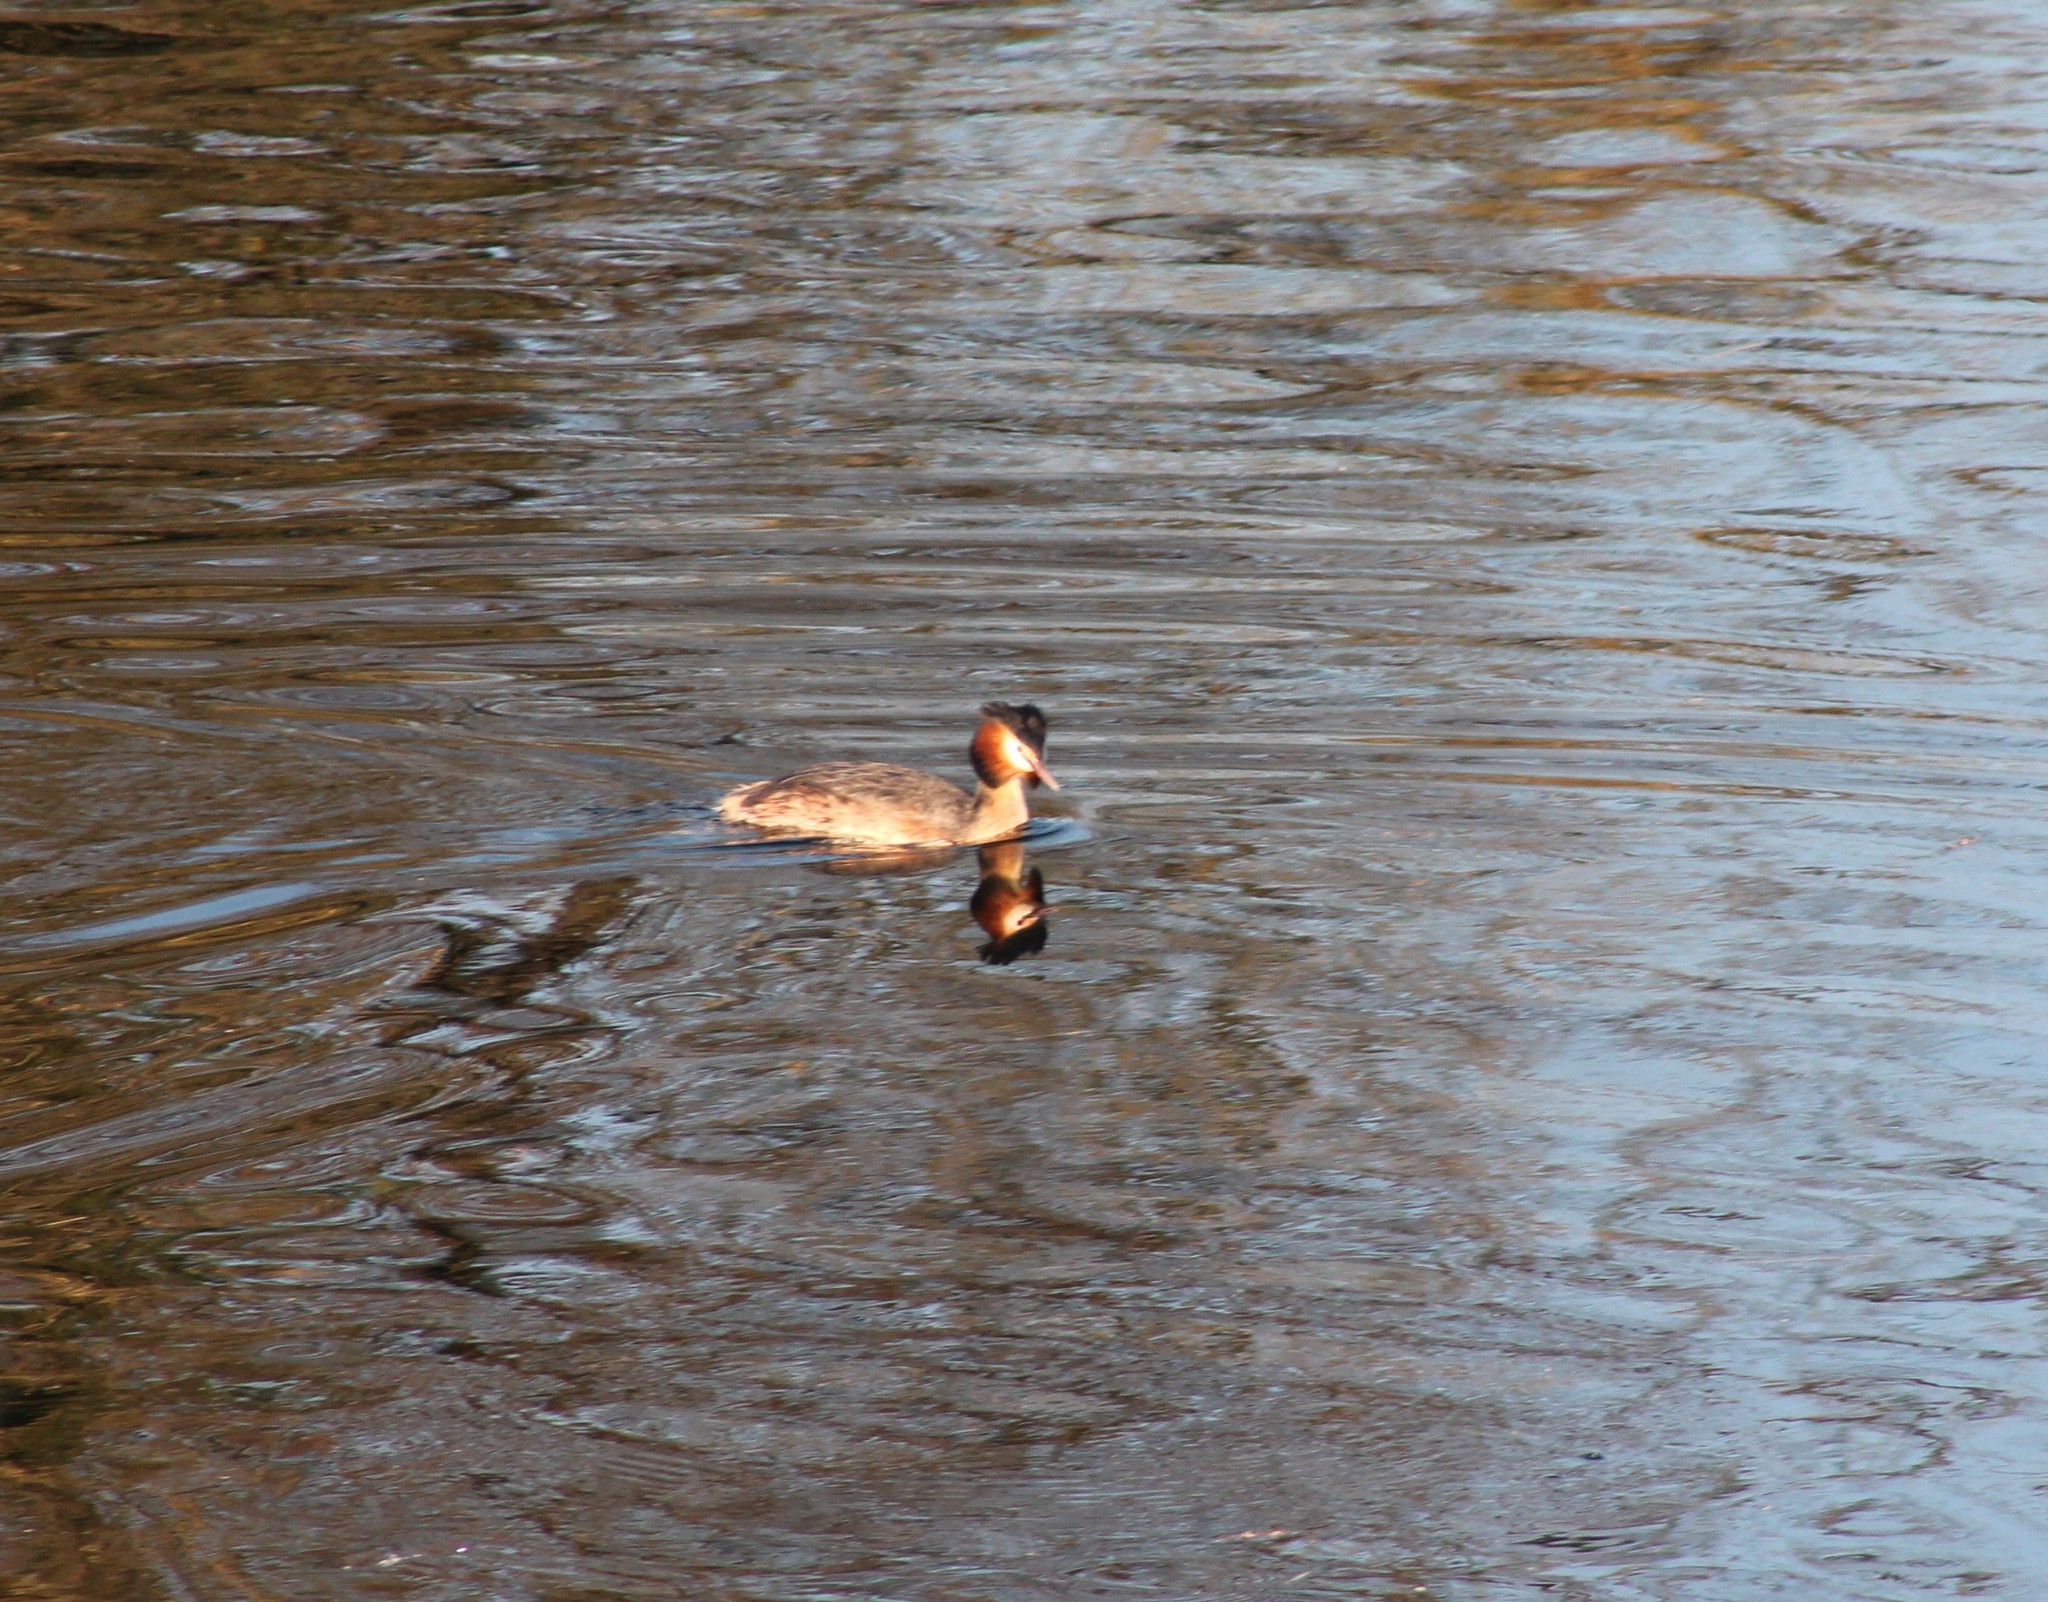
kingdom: Animalia
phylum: Chordata
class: Aves
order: Podicipediformes
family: Podicipedidae
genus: Podiceps
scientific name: Podiceps cristatus
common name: Great crested grebe
